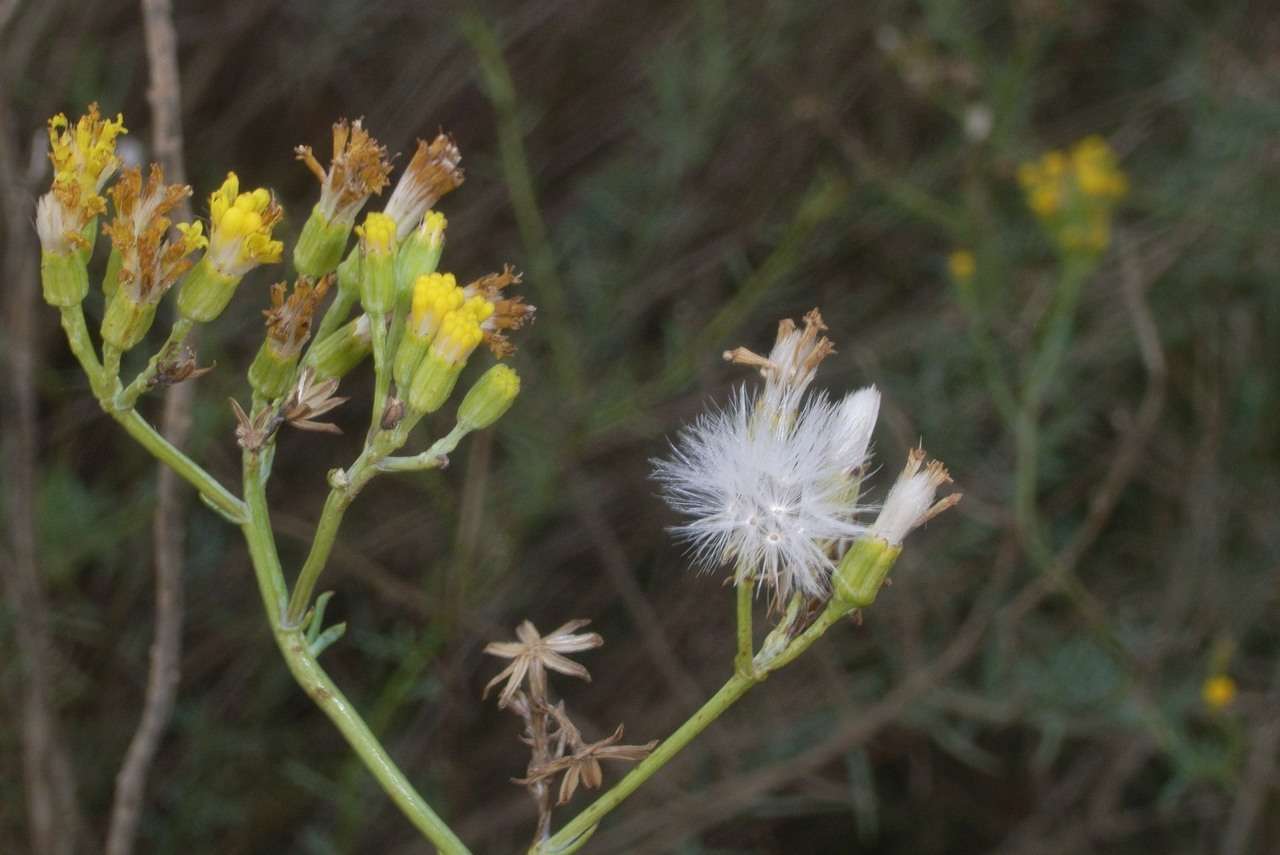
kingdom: Plantae
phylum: Tracheophyta
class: Magnoliopsida
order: Asterales
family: Asteraceae
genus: Senecio
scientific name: Senecio cunninghamii
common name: Bushy groundsel
